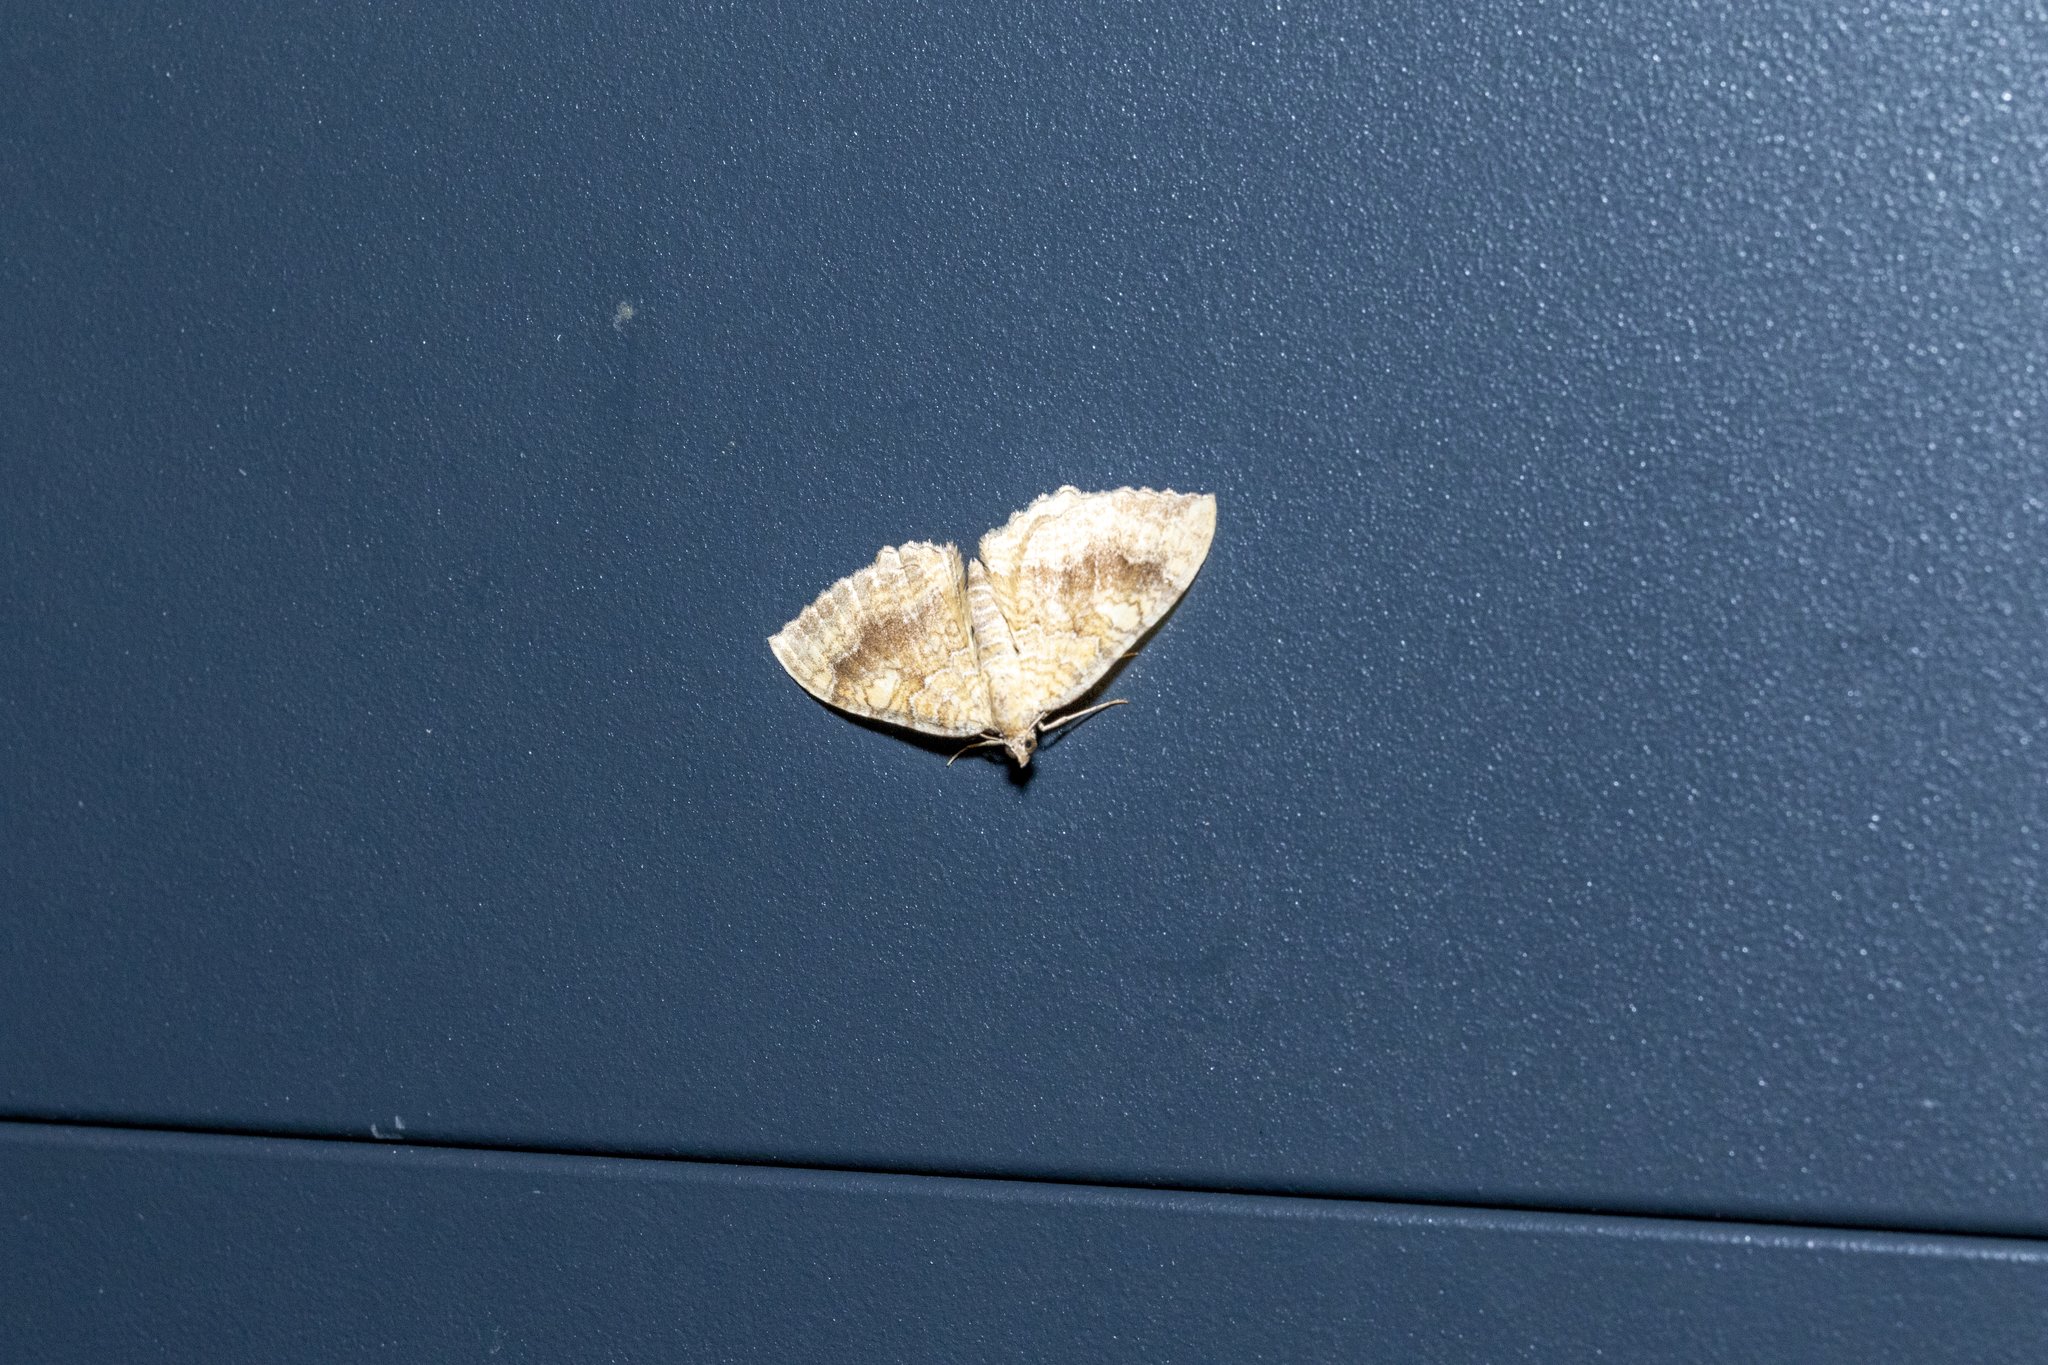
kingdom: Animalia
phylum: Arthropoda
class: Insecta
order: Lepidoptera
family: Geometridae
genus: Camptogramma
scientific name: Camptogramma bilineata
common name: Yellow shell
